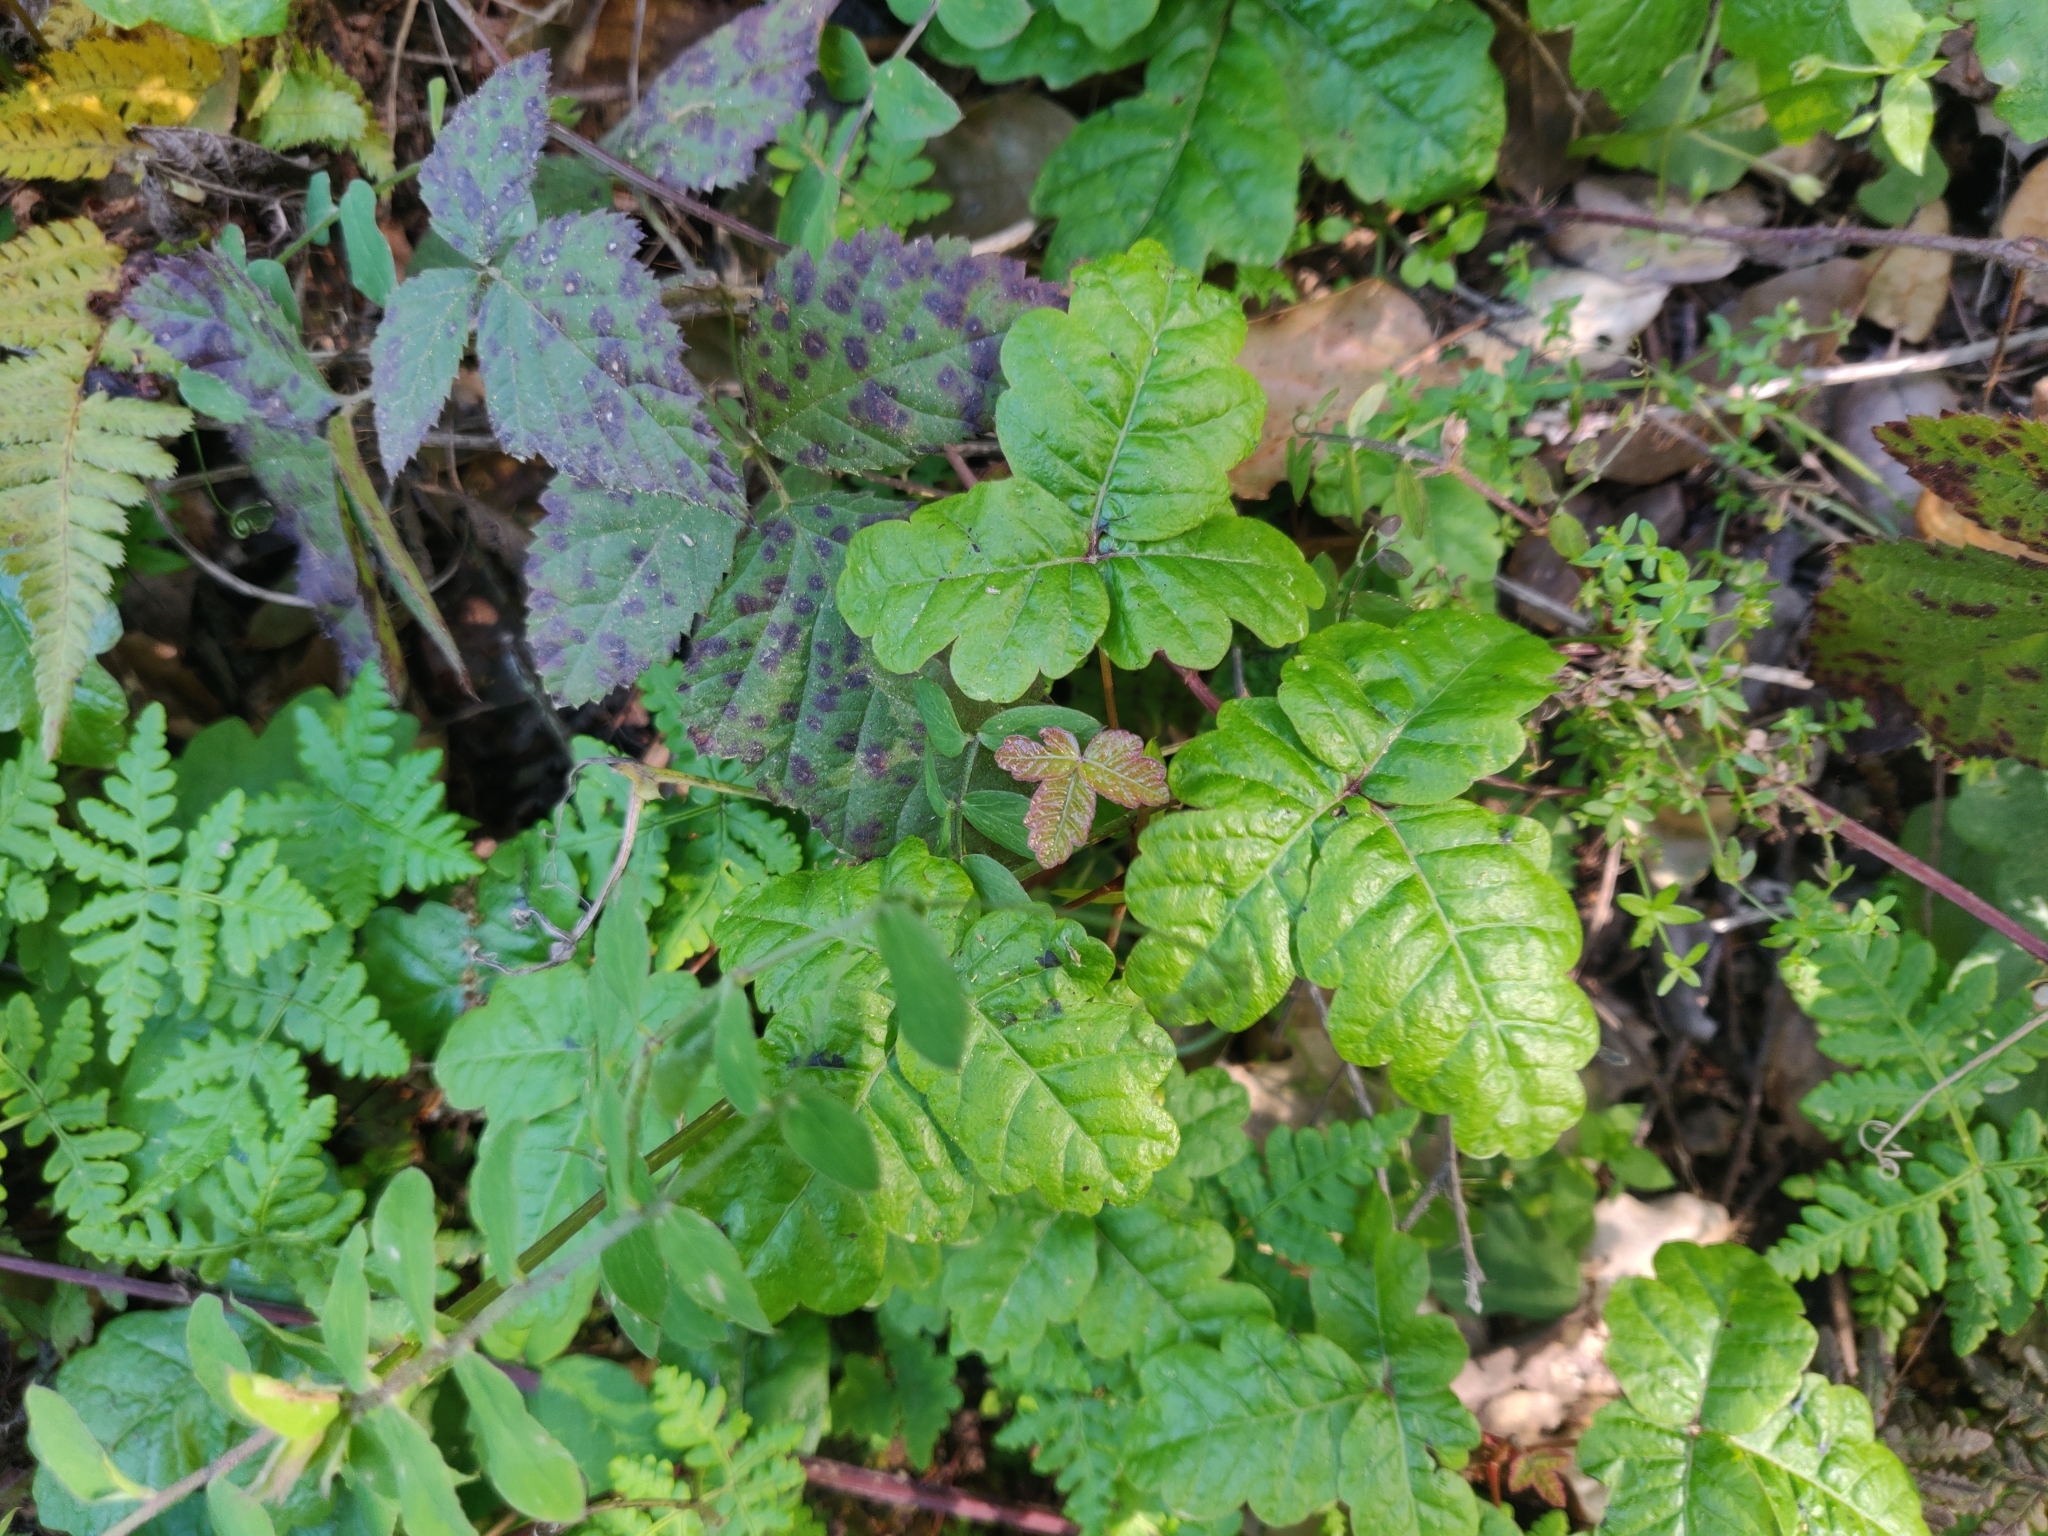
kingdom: Plantae
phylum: Tracheophyta
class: Magnoliopsida
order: Sapindales
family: Anacardiaceae
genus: Toxicodendron
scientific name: Toxicodendron diversilobum
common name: Pacific poison-oak
